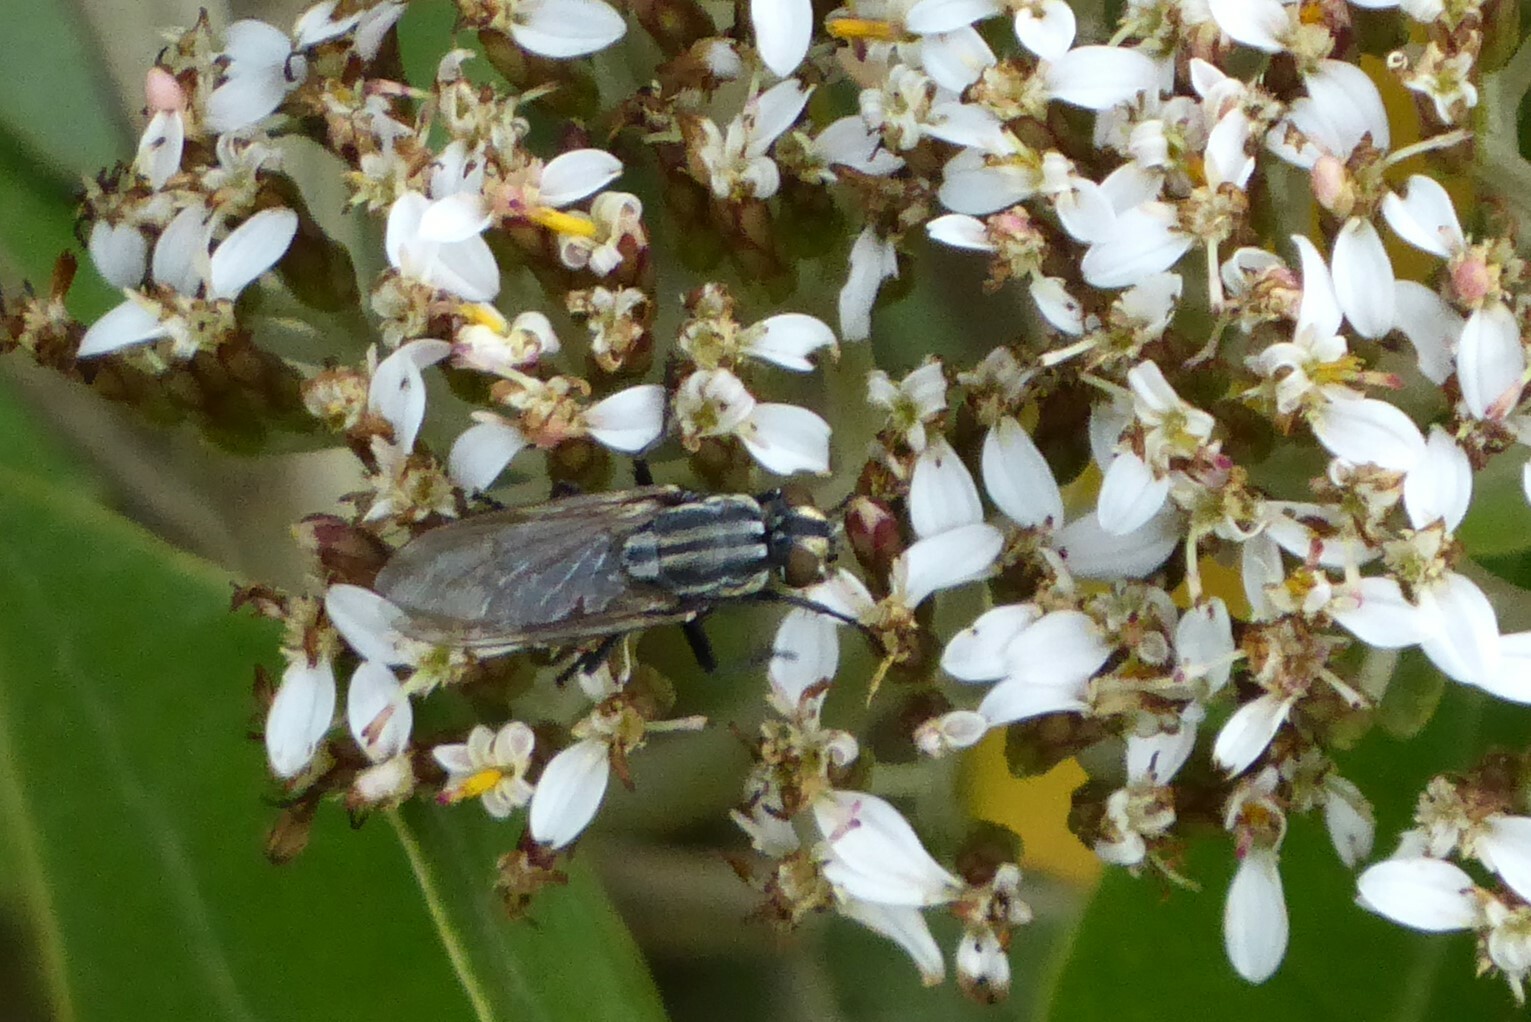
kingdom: Animalia
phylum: Arthropoda
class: Insecta
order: Diptera
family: Sarcophagidae
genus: Oxysarcodexia
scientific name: Oxysarcodexia varia
